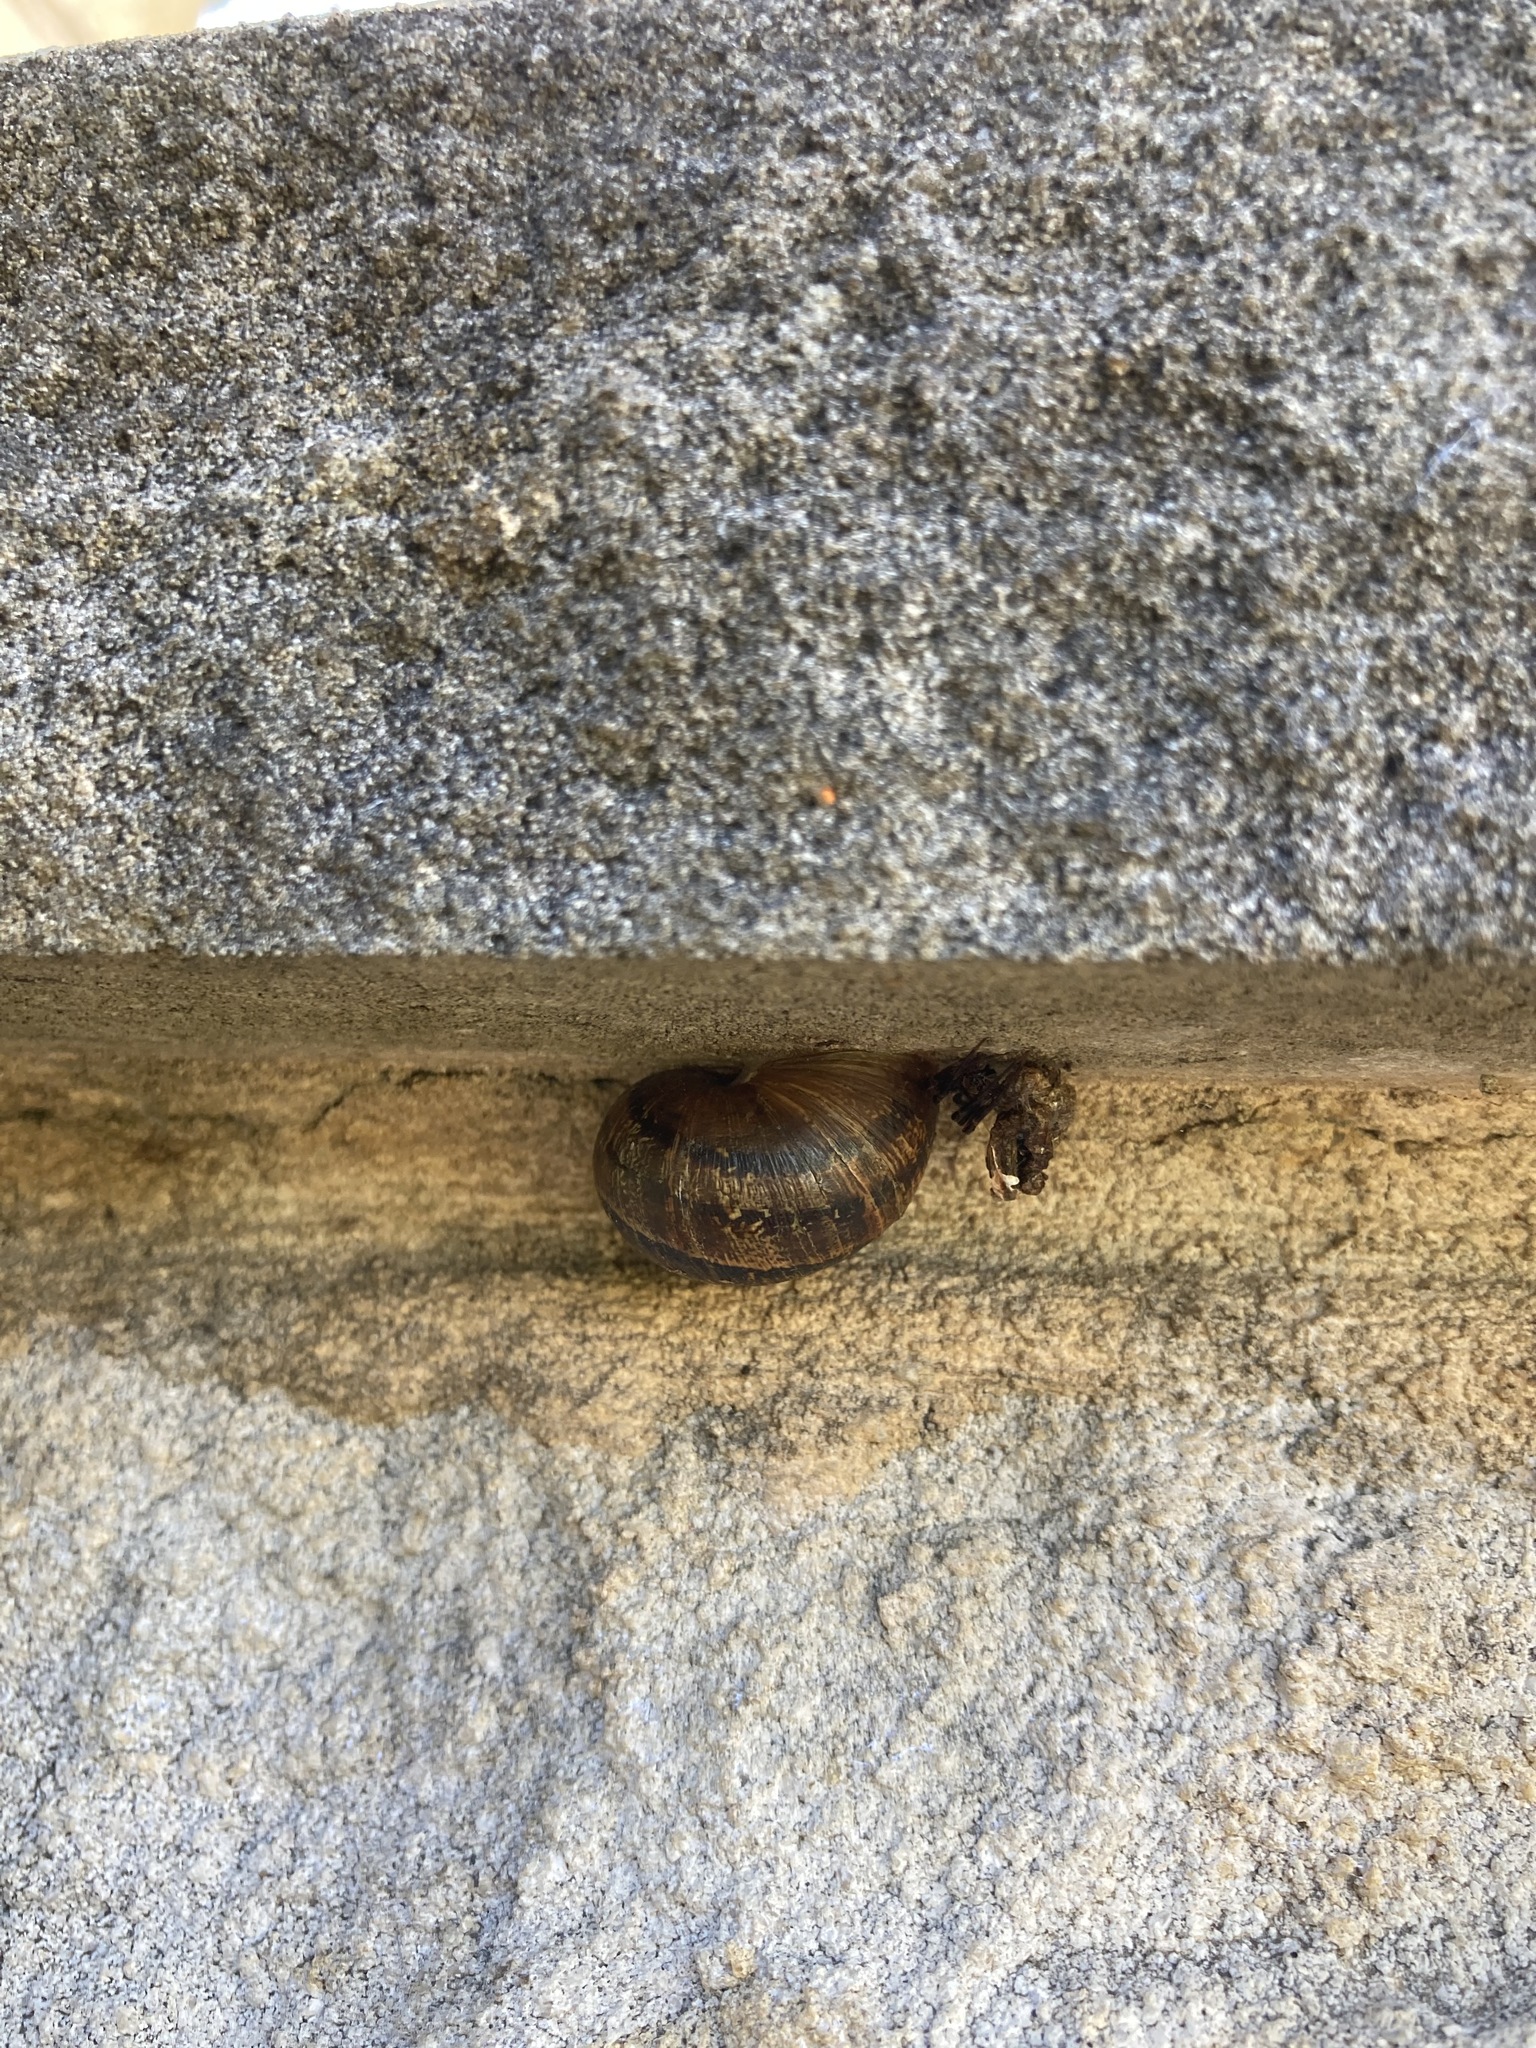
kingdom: Animalia
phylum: Mollusca
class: Gastropoda
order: Stylommatophora
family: Helicidae
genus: Cornu
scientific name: Cornu aspersum
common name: Brown garden snail
